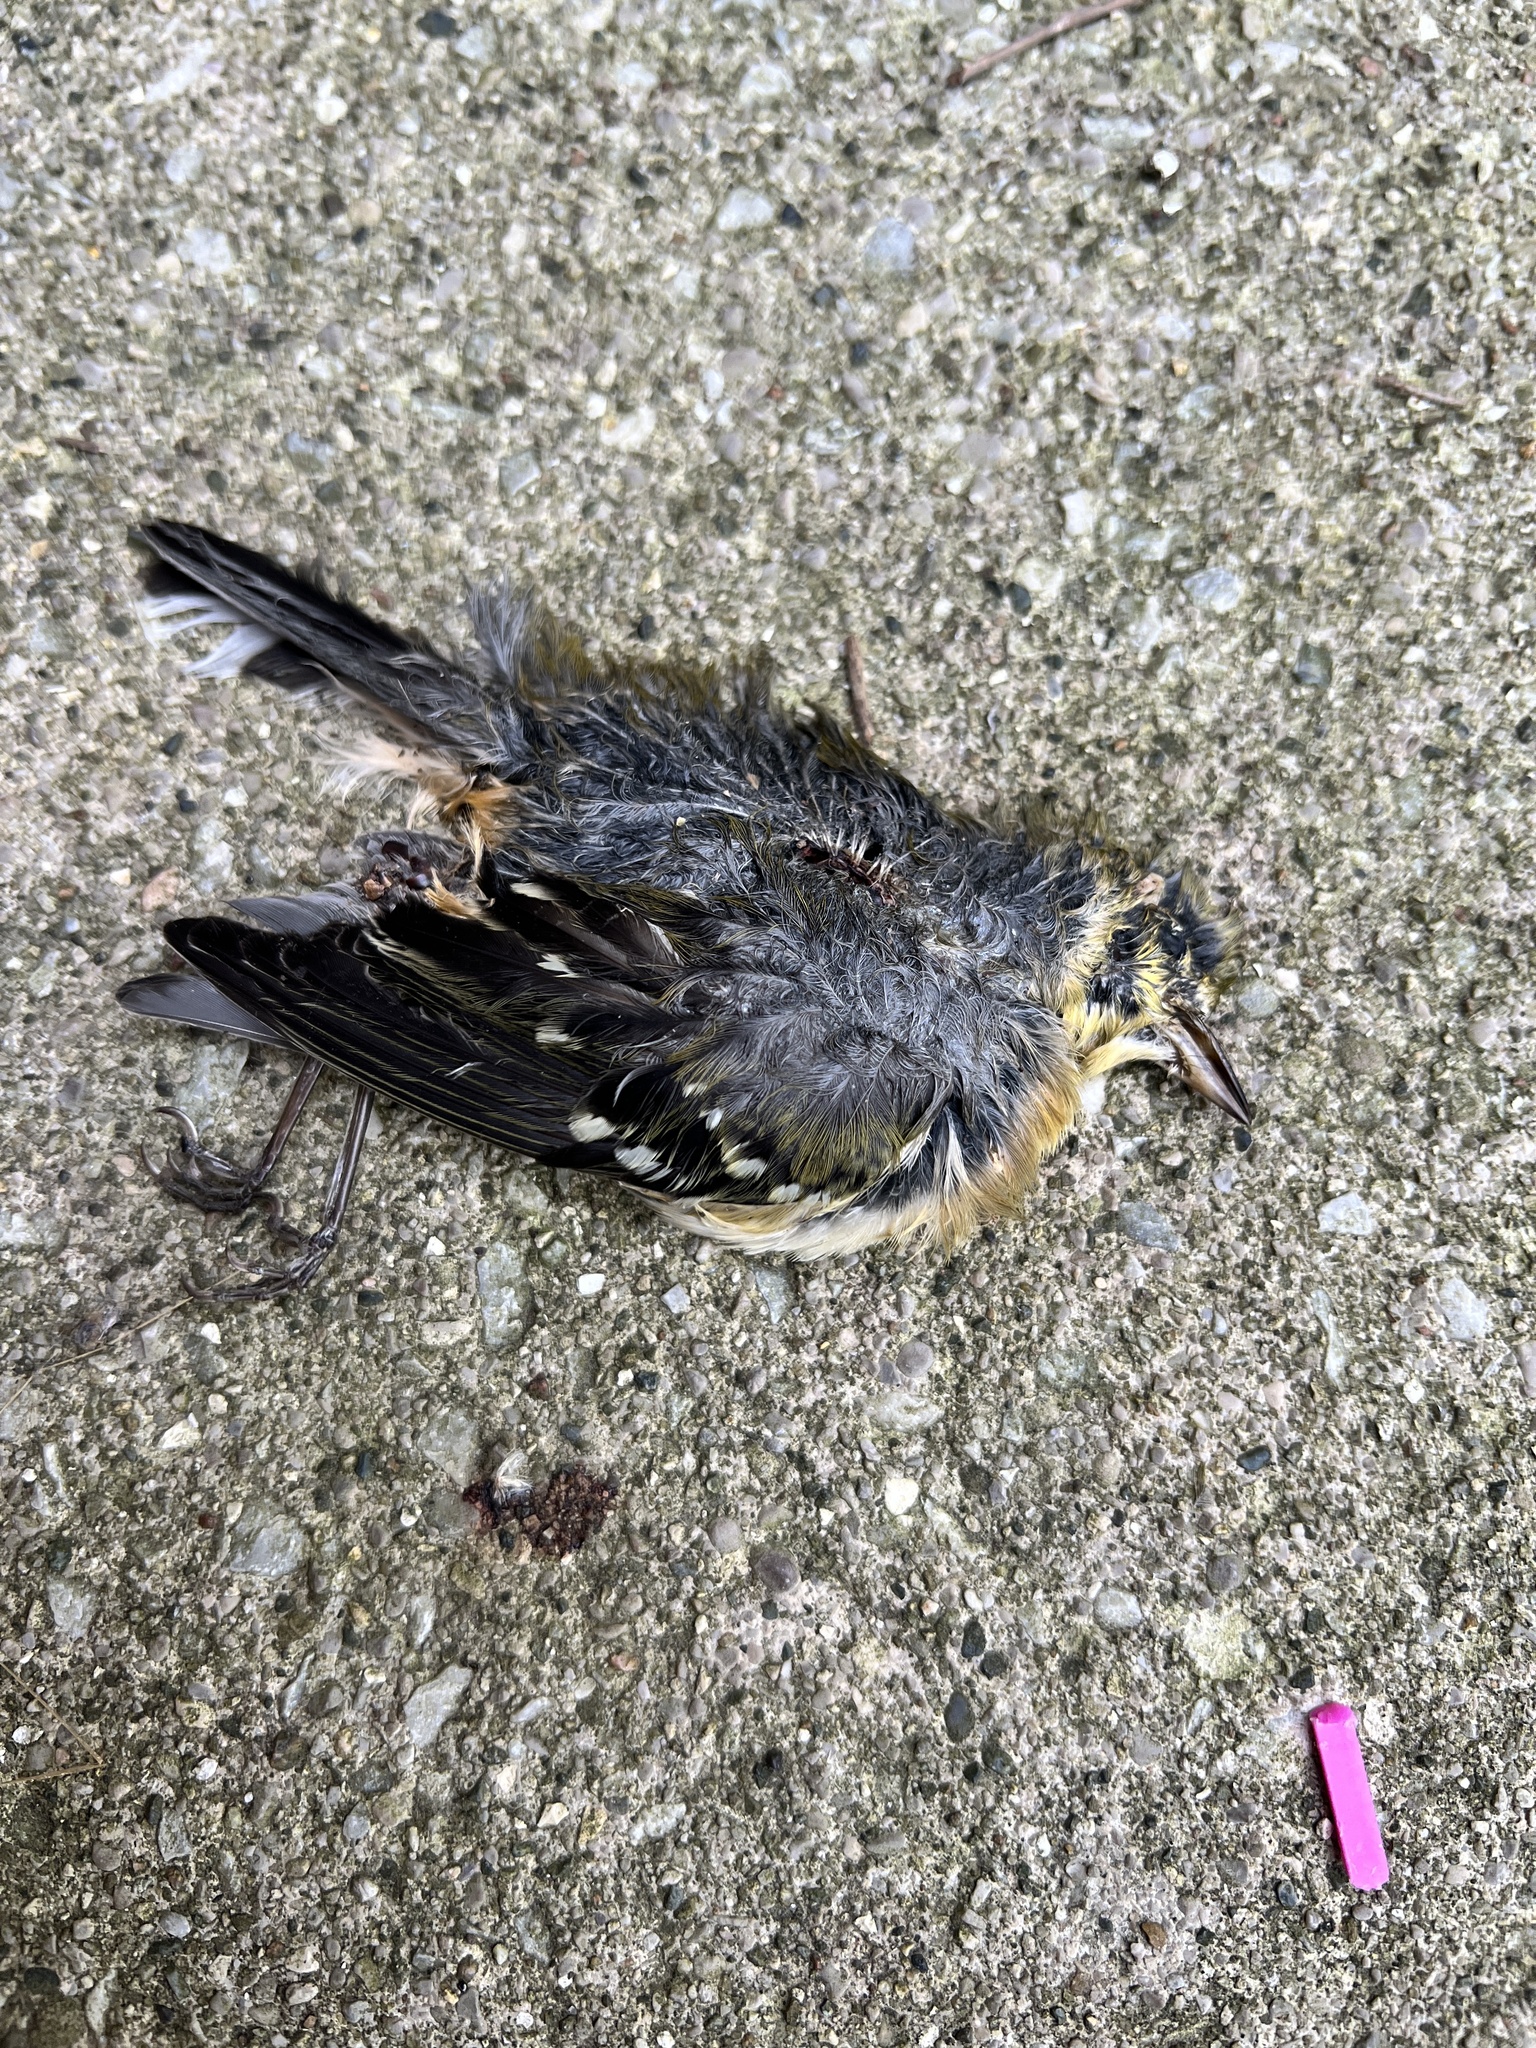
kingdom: Animalia
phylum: Chordata
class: Aves
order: Passeriformes
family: Turdidae
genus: Turdus
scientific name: Turdus migratorius
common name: American robin
